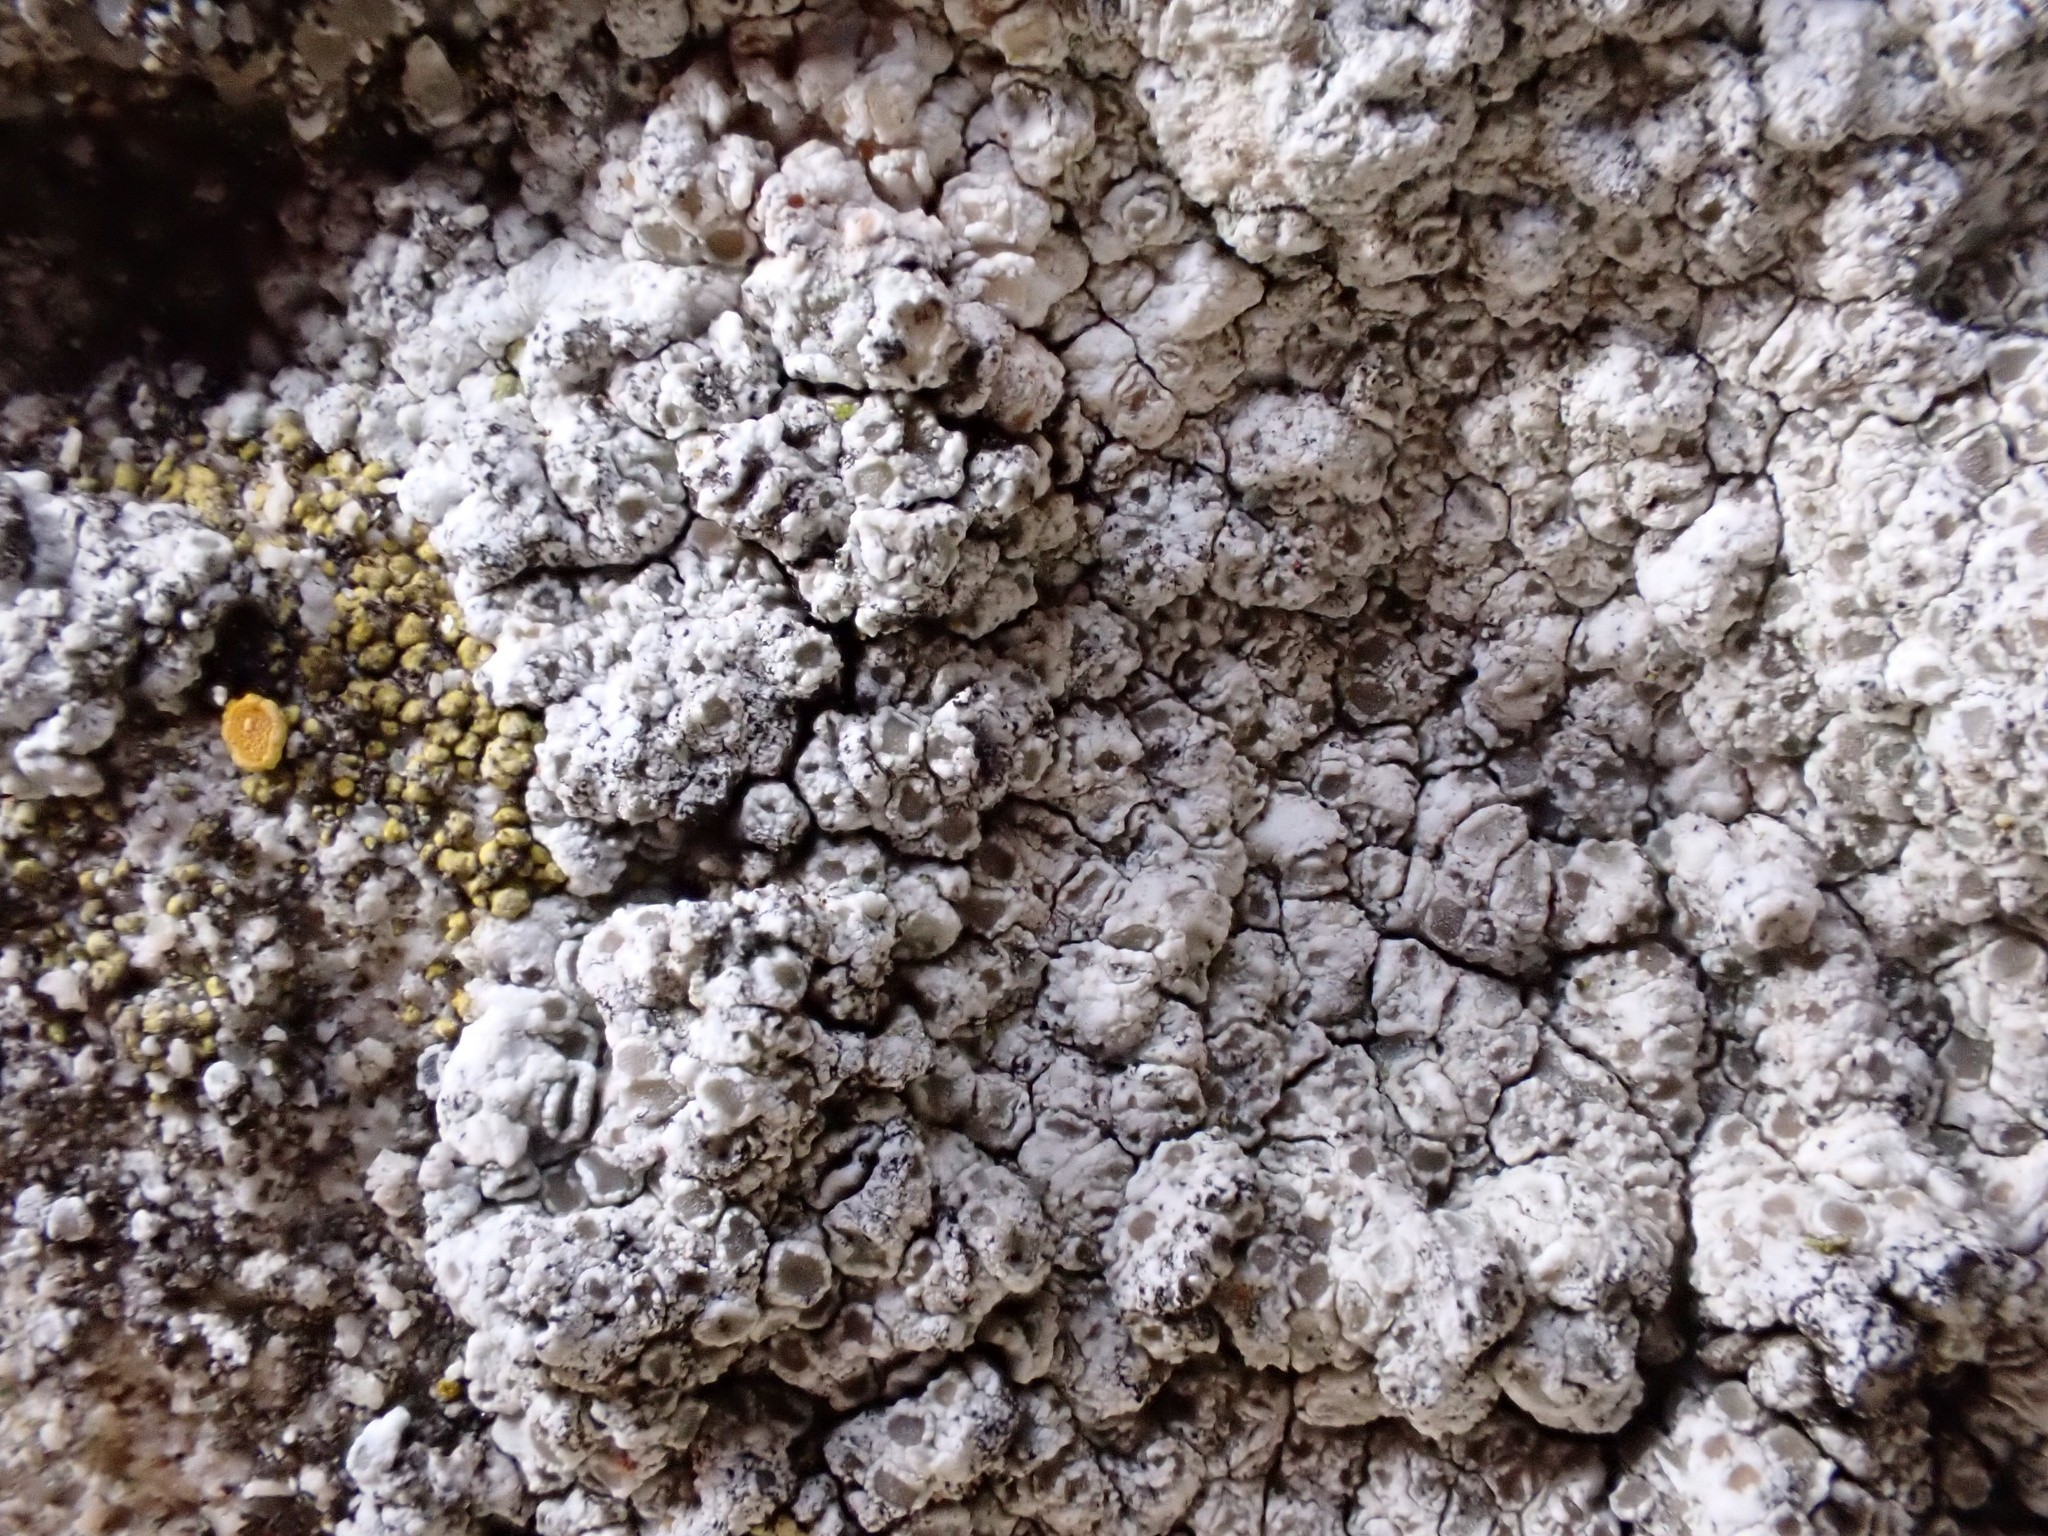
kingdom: Fungi
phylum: Ascomycota
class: Lecanoromycetes
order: Lecanorales
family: Lecanoraceae
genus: Polyozosia
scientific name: Polyozosia albescens
